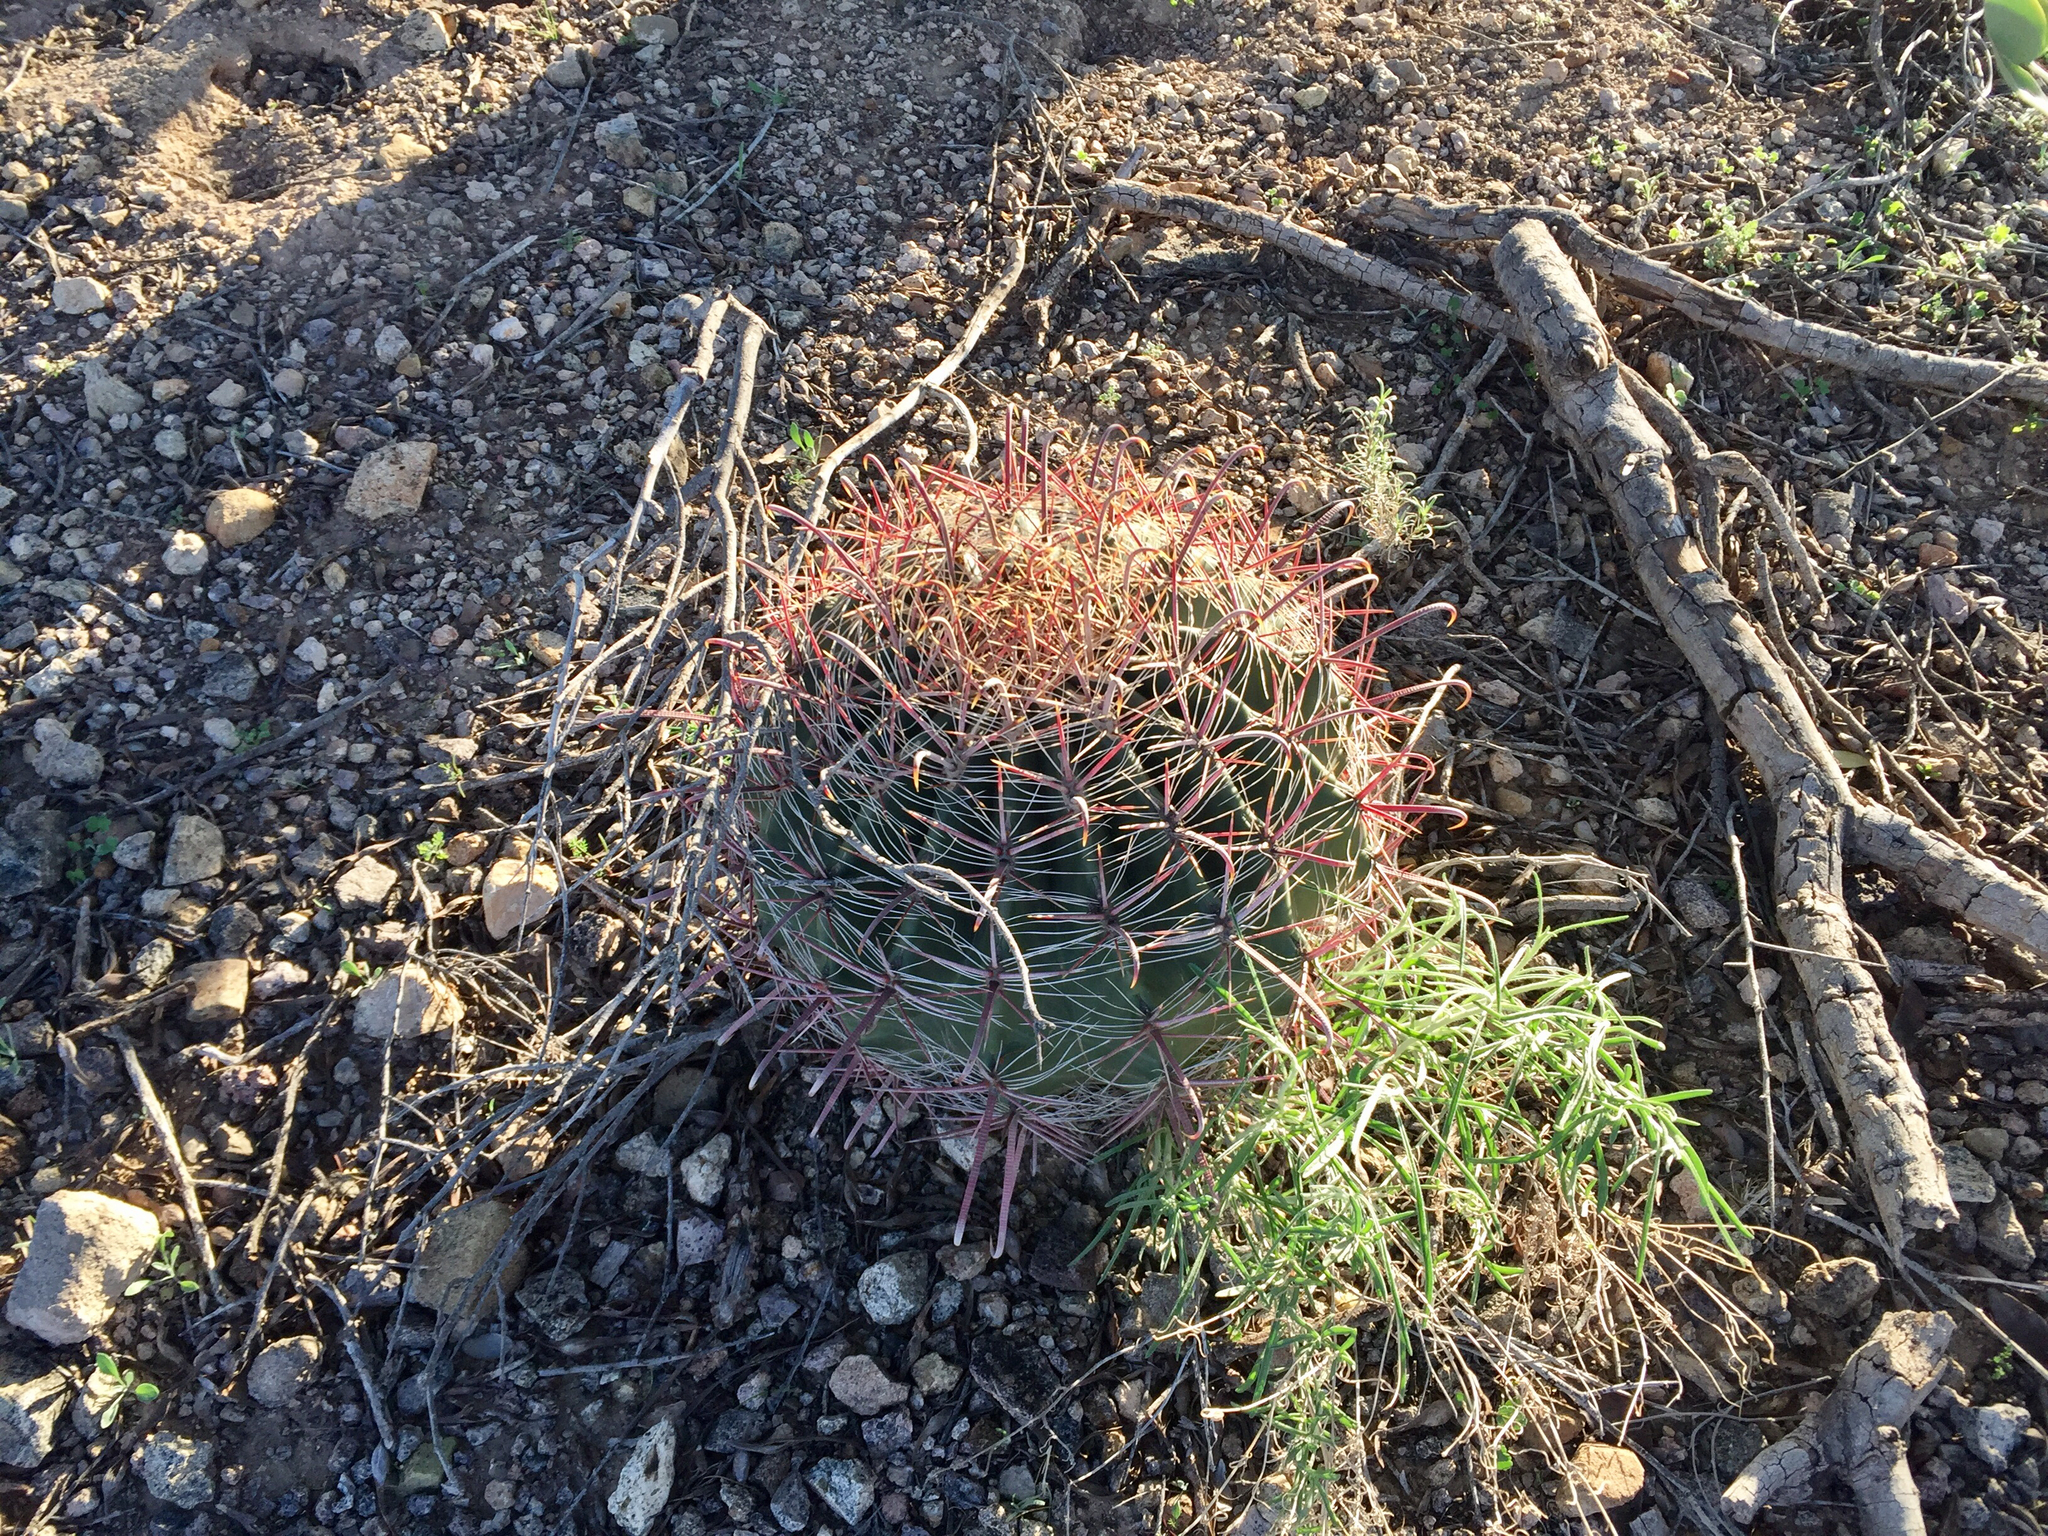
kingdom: Plantae
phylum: Tracheophyta
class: Magnoliopsida
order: Caryophyllales
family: Cactaceae
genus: Ferocactus
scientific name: Ferocactus wislizeni
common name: Candy barrel cactus
